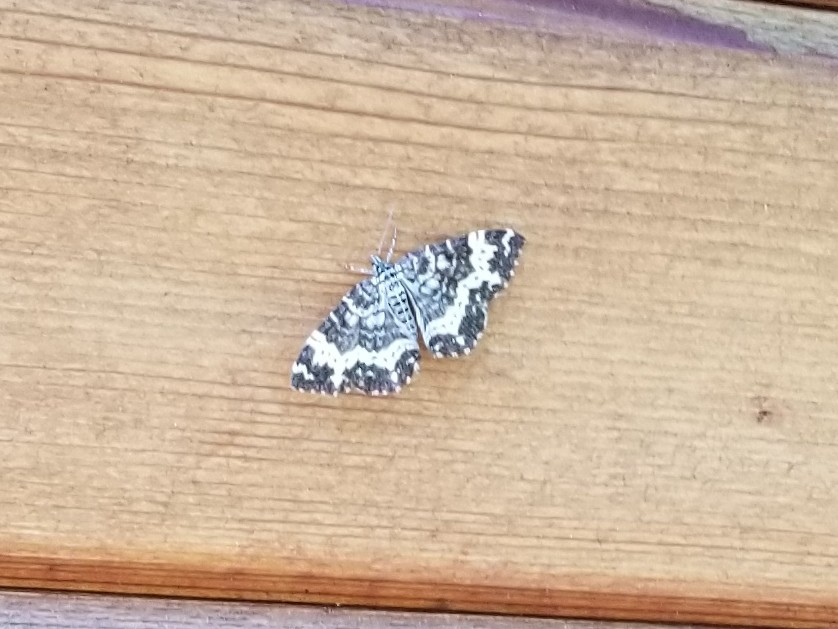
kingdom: Animalia
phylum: Arthropoda
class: Insecta
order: Lepidoptera
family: Geometridae
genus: Rheumaptera
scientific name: Rheumaptera
